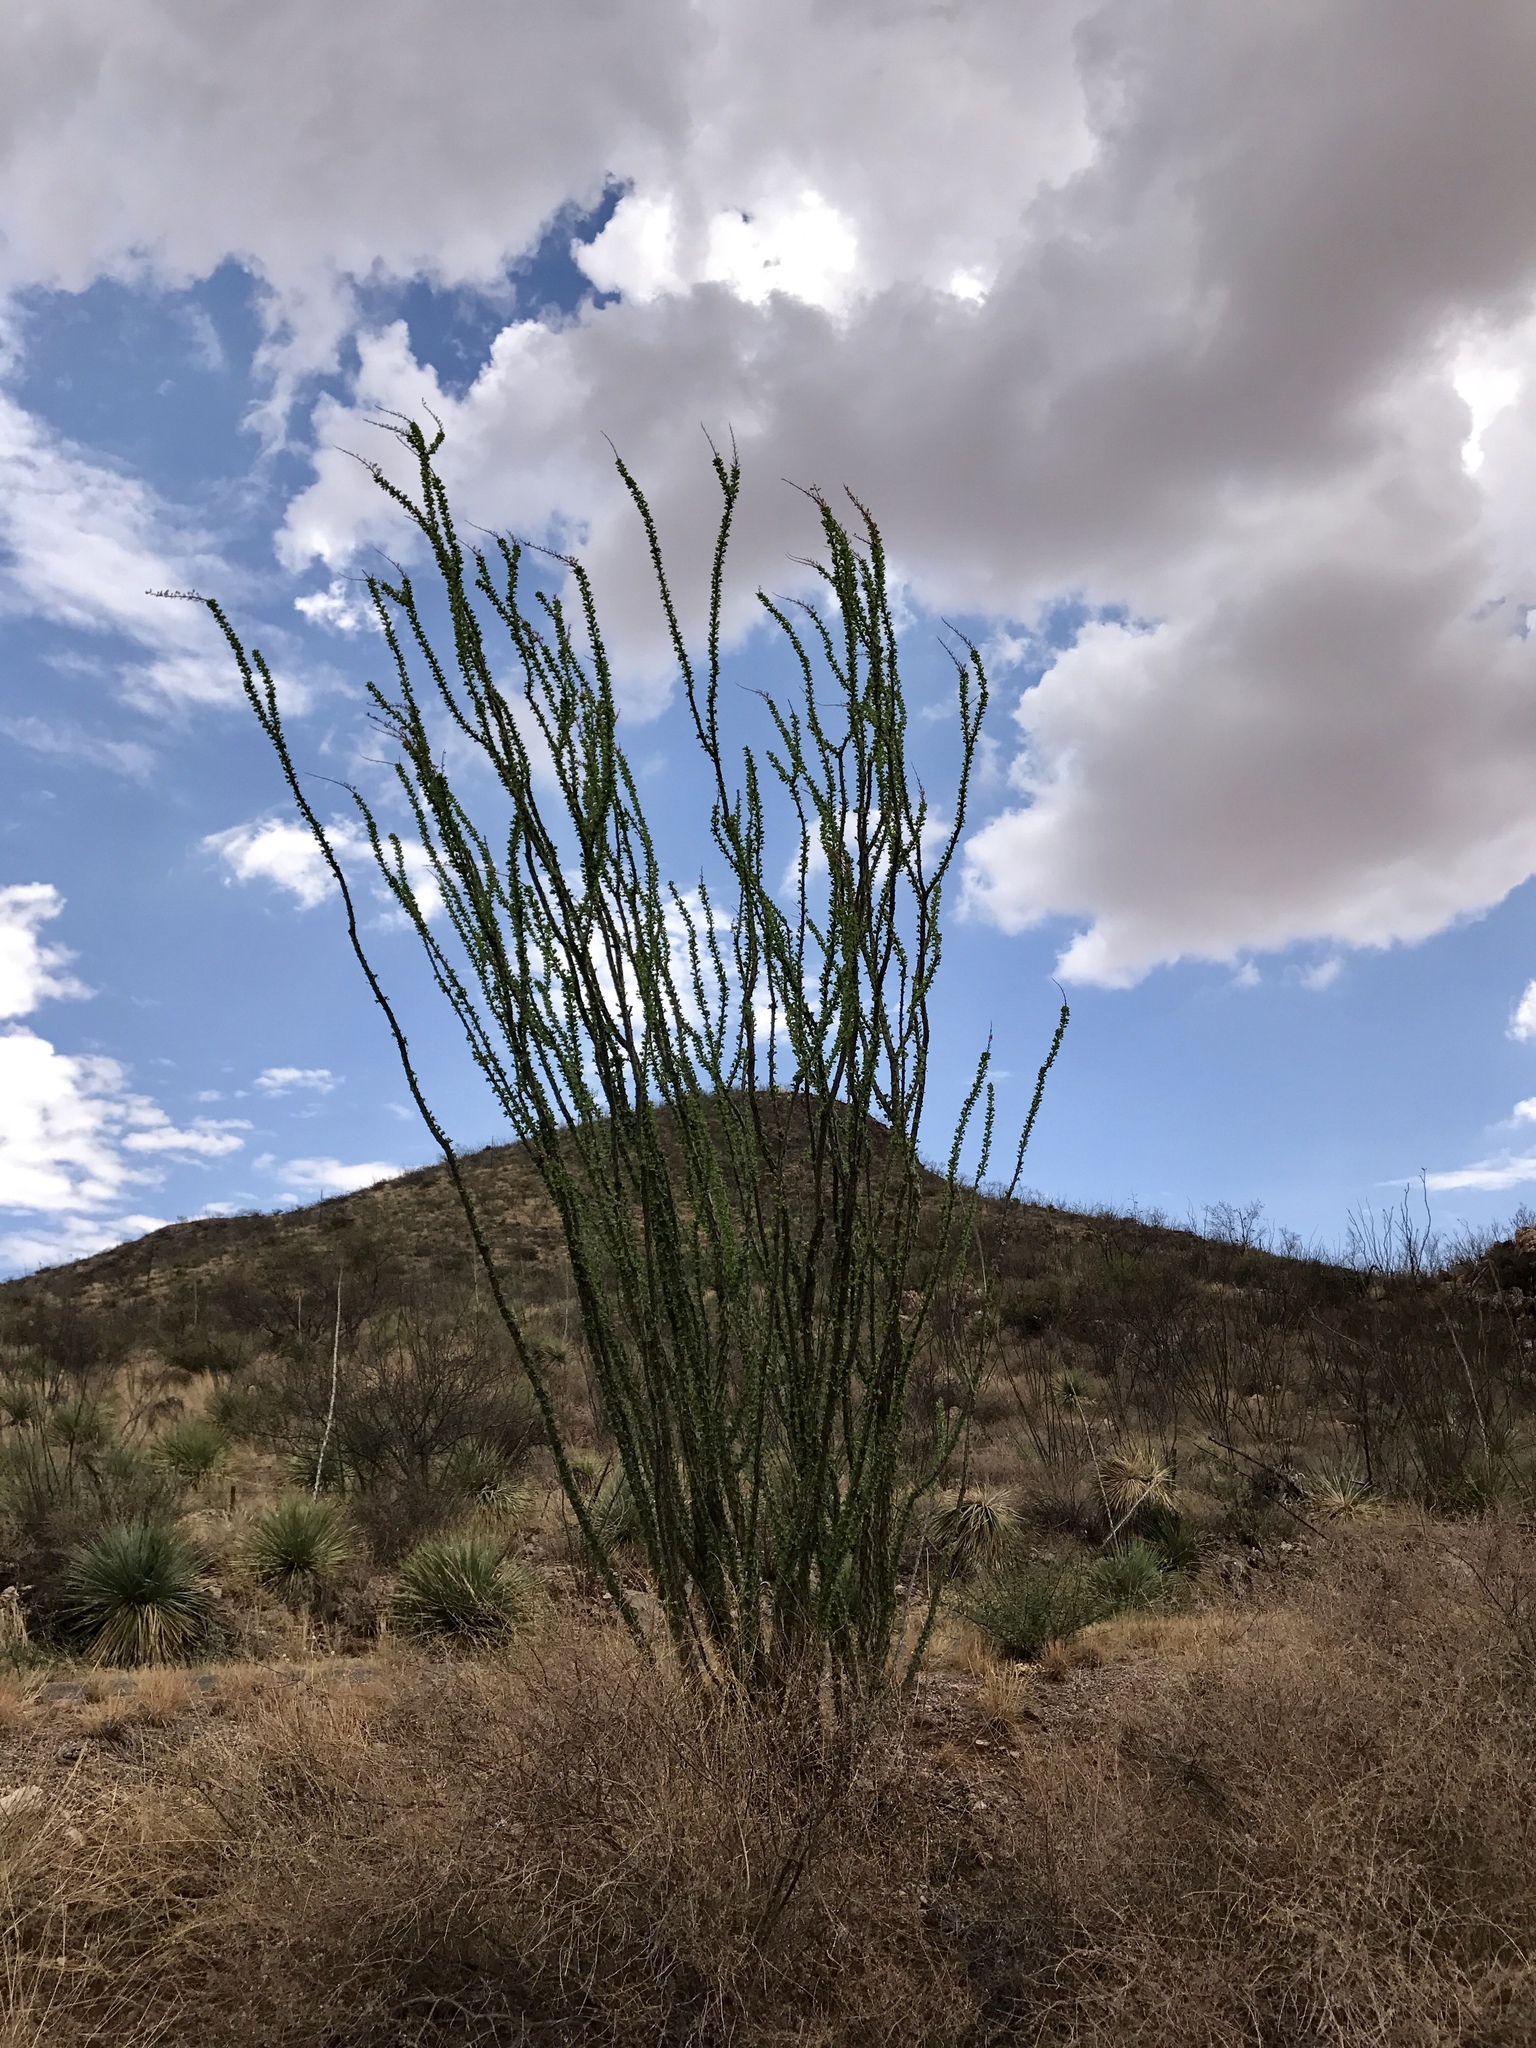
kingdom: Plantae
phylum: Tracheophyta
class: Magnoliopsida
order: Ericales
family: Fouquieriaceae
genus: Fouquieria
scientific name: Fouquieria splendens
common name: Vine-cactus
